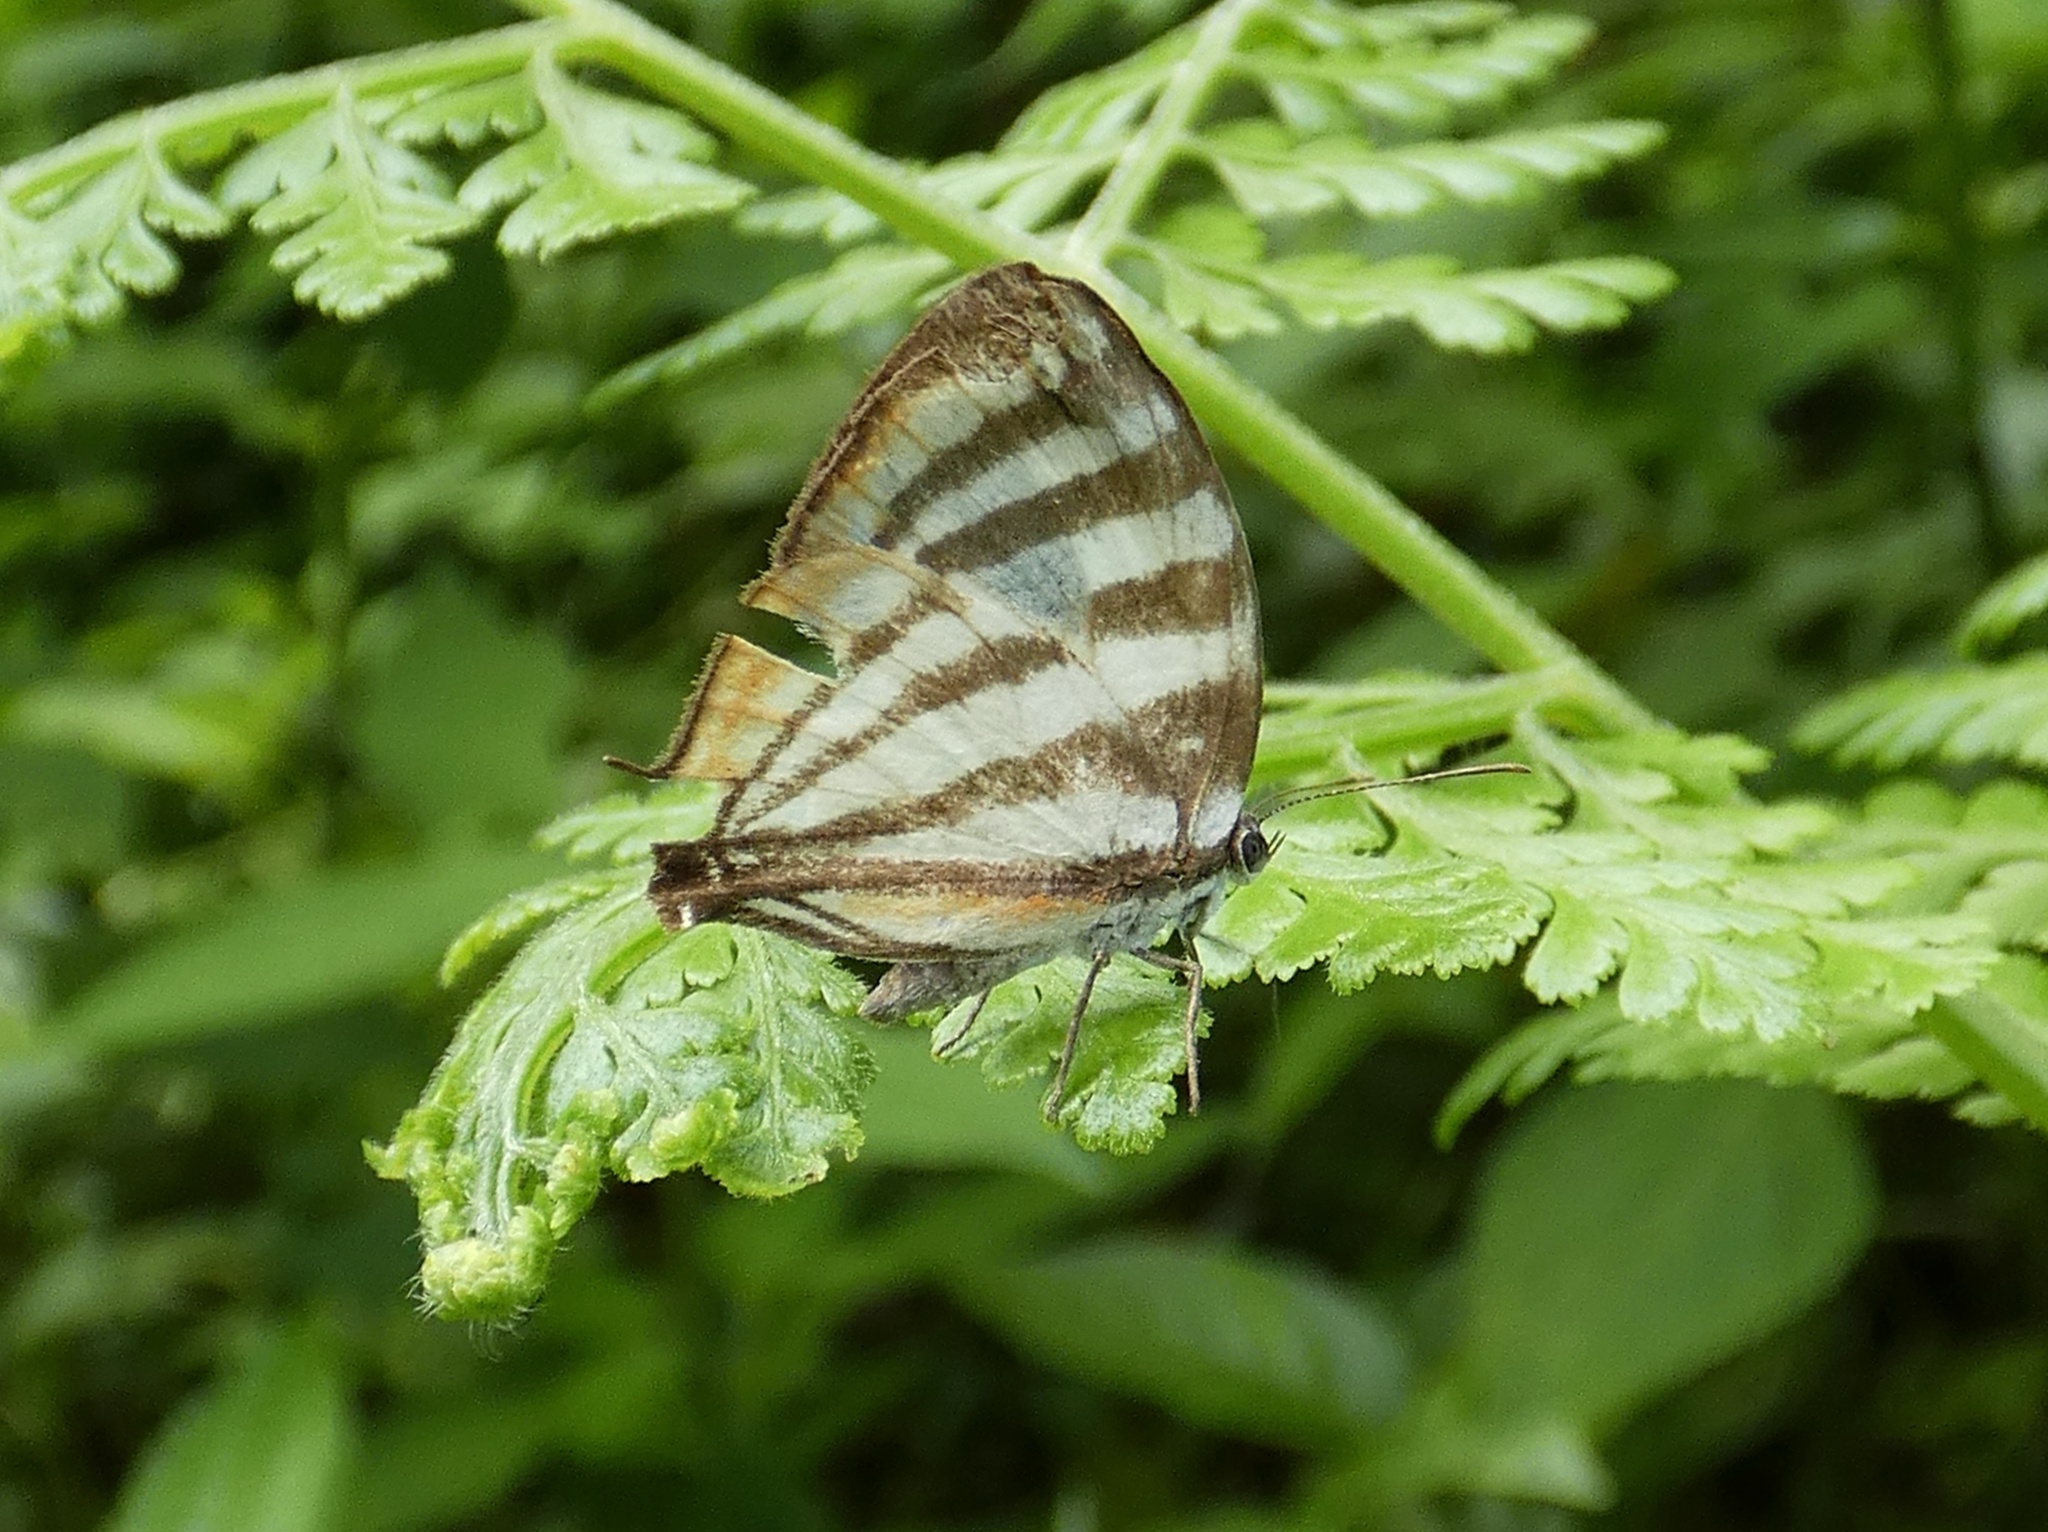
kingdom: Animalia
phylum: Arthropoda
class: Insecta
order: Lepidoptera
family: Lycaenidae
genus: Arawacus
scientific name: Arawacus lincoides
